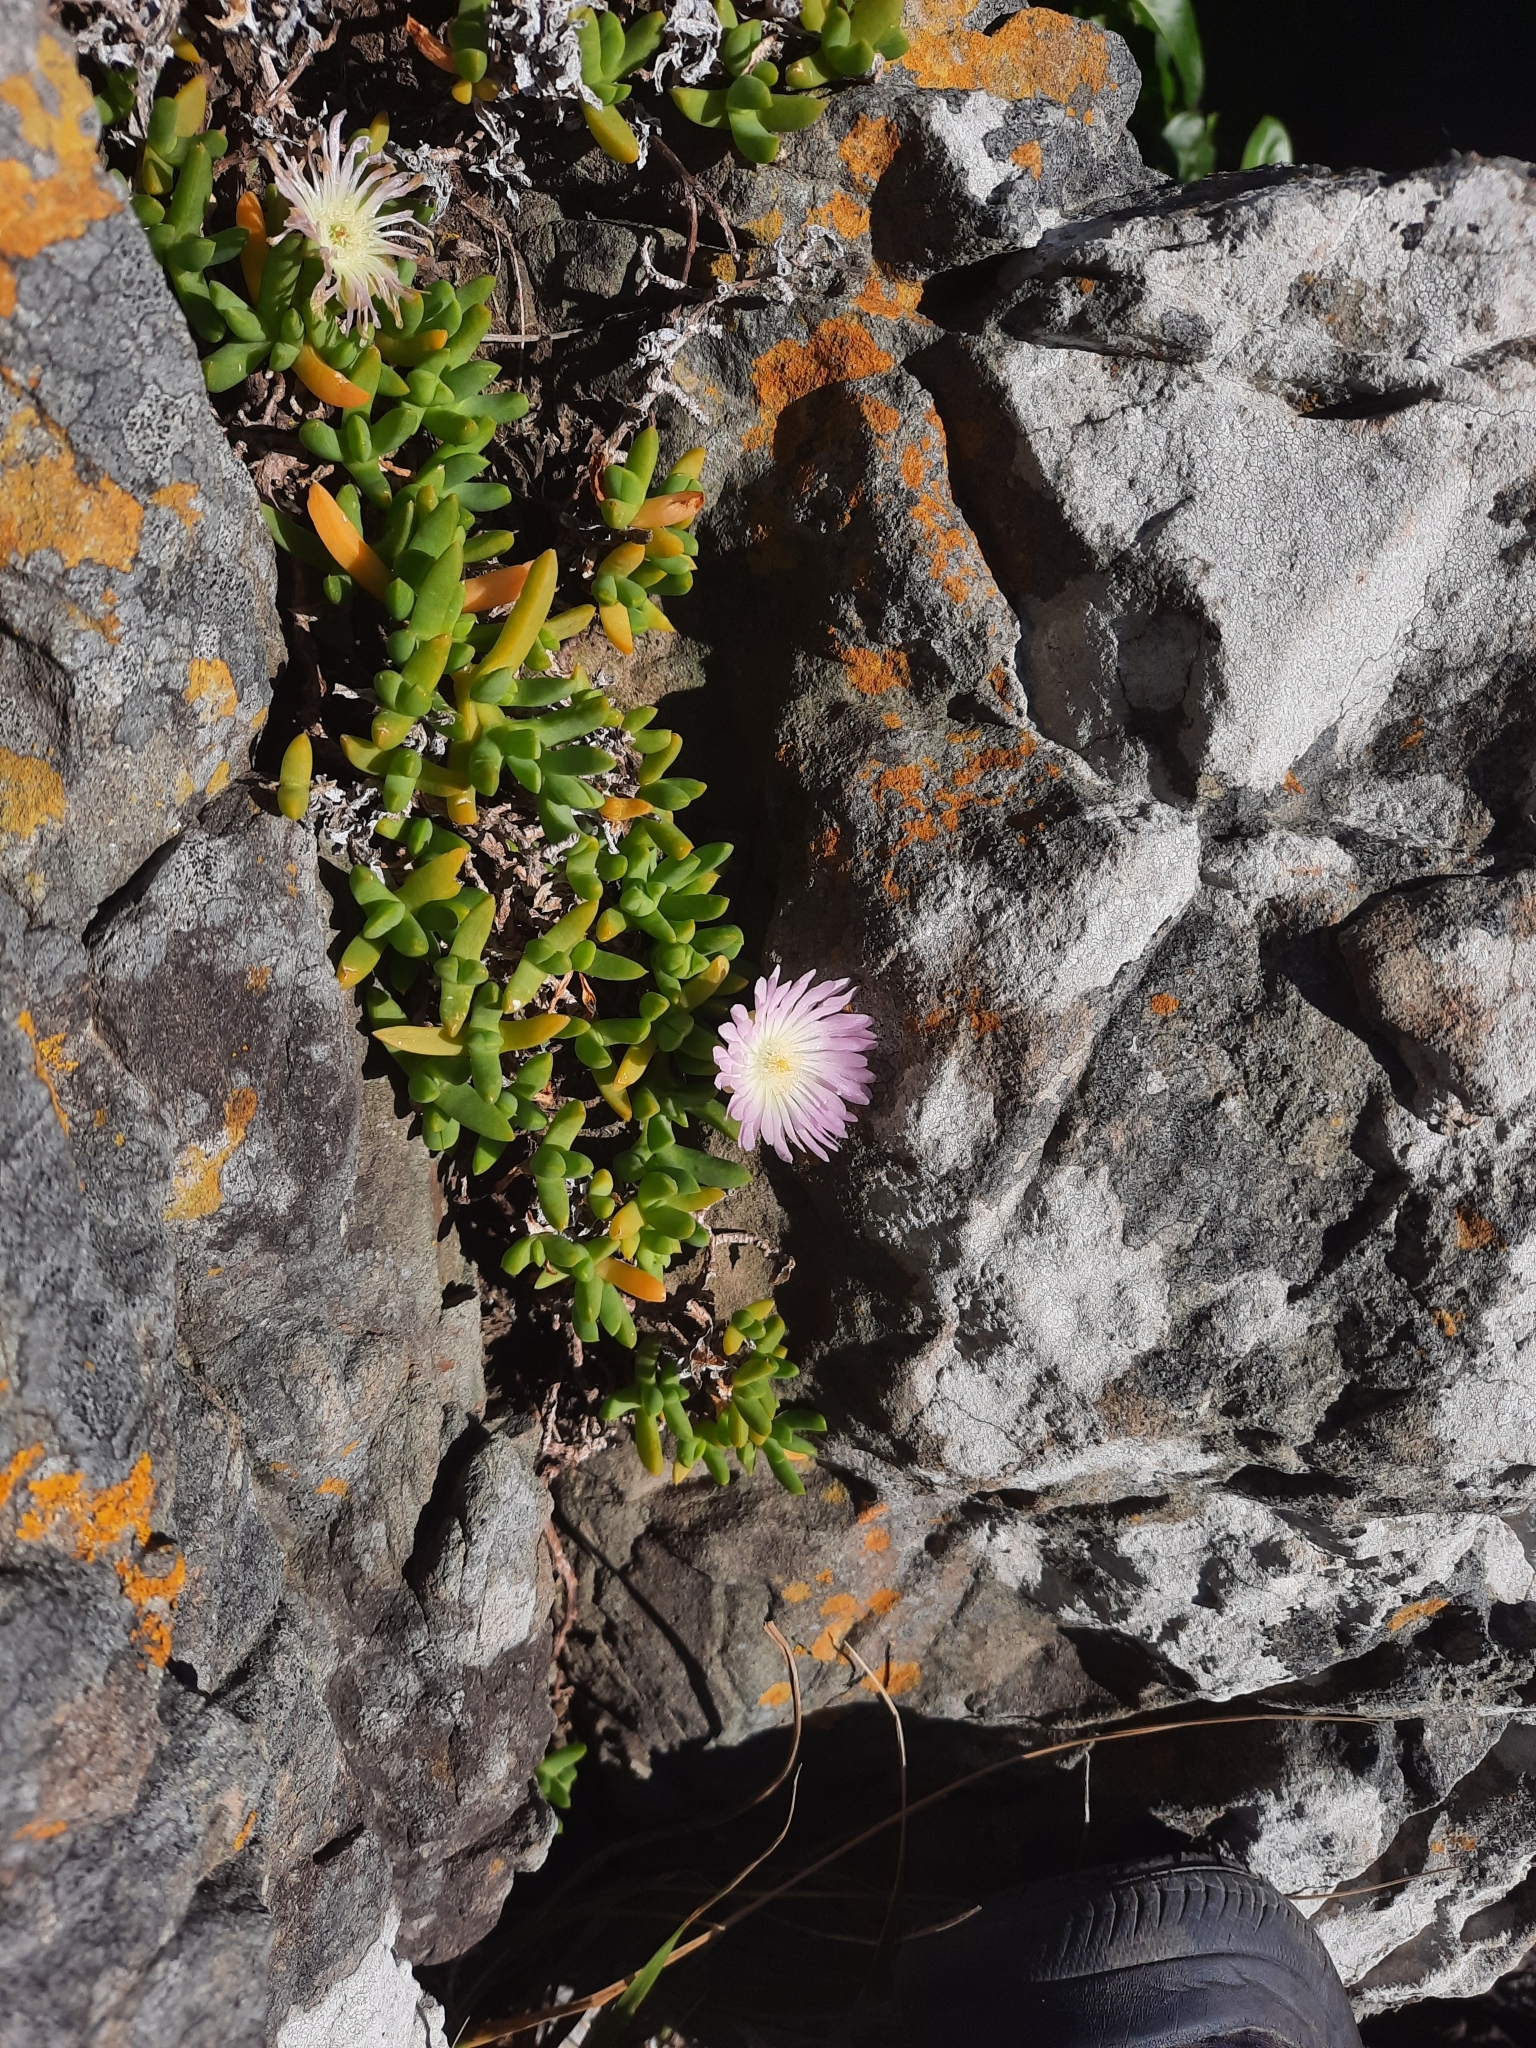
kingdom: Plantae
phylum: Tracheophyta
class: Magnoliopsida
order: Caryophyllales
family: Aizoaceae
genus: Disphyma
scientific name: Disphyma australe
